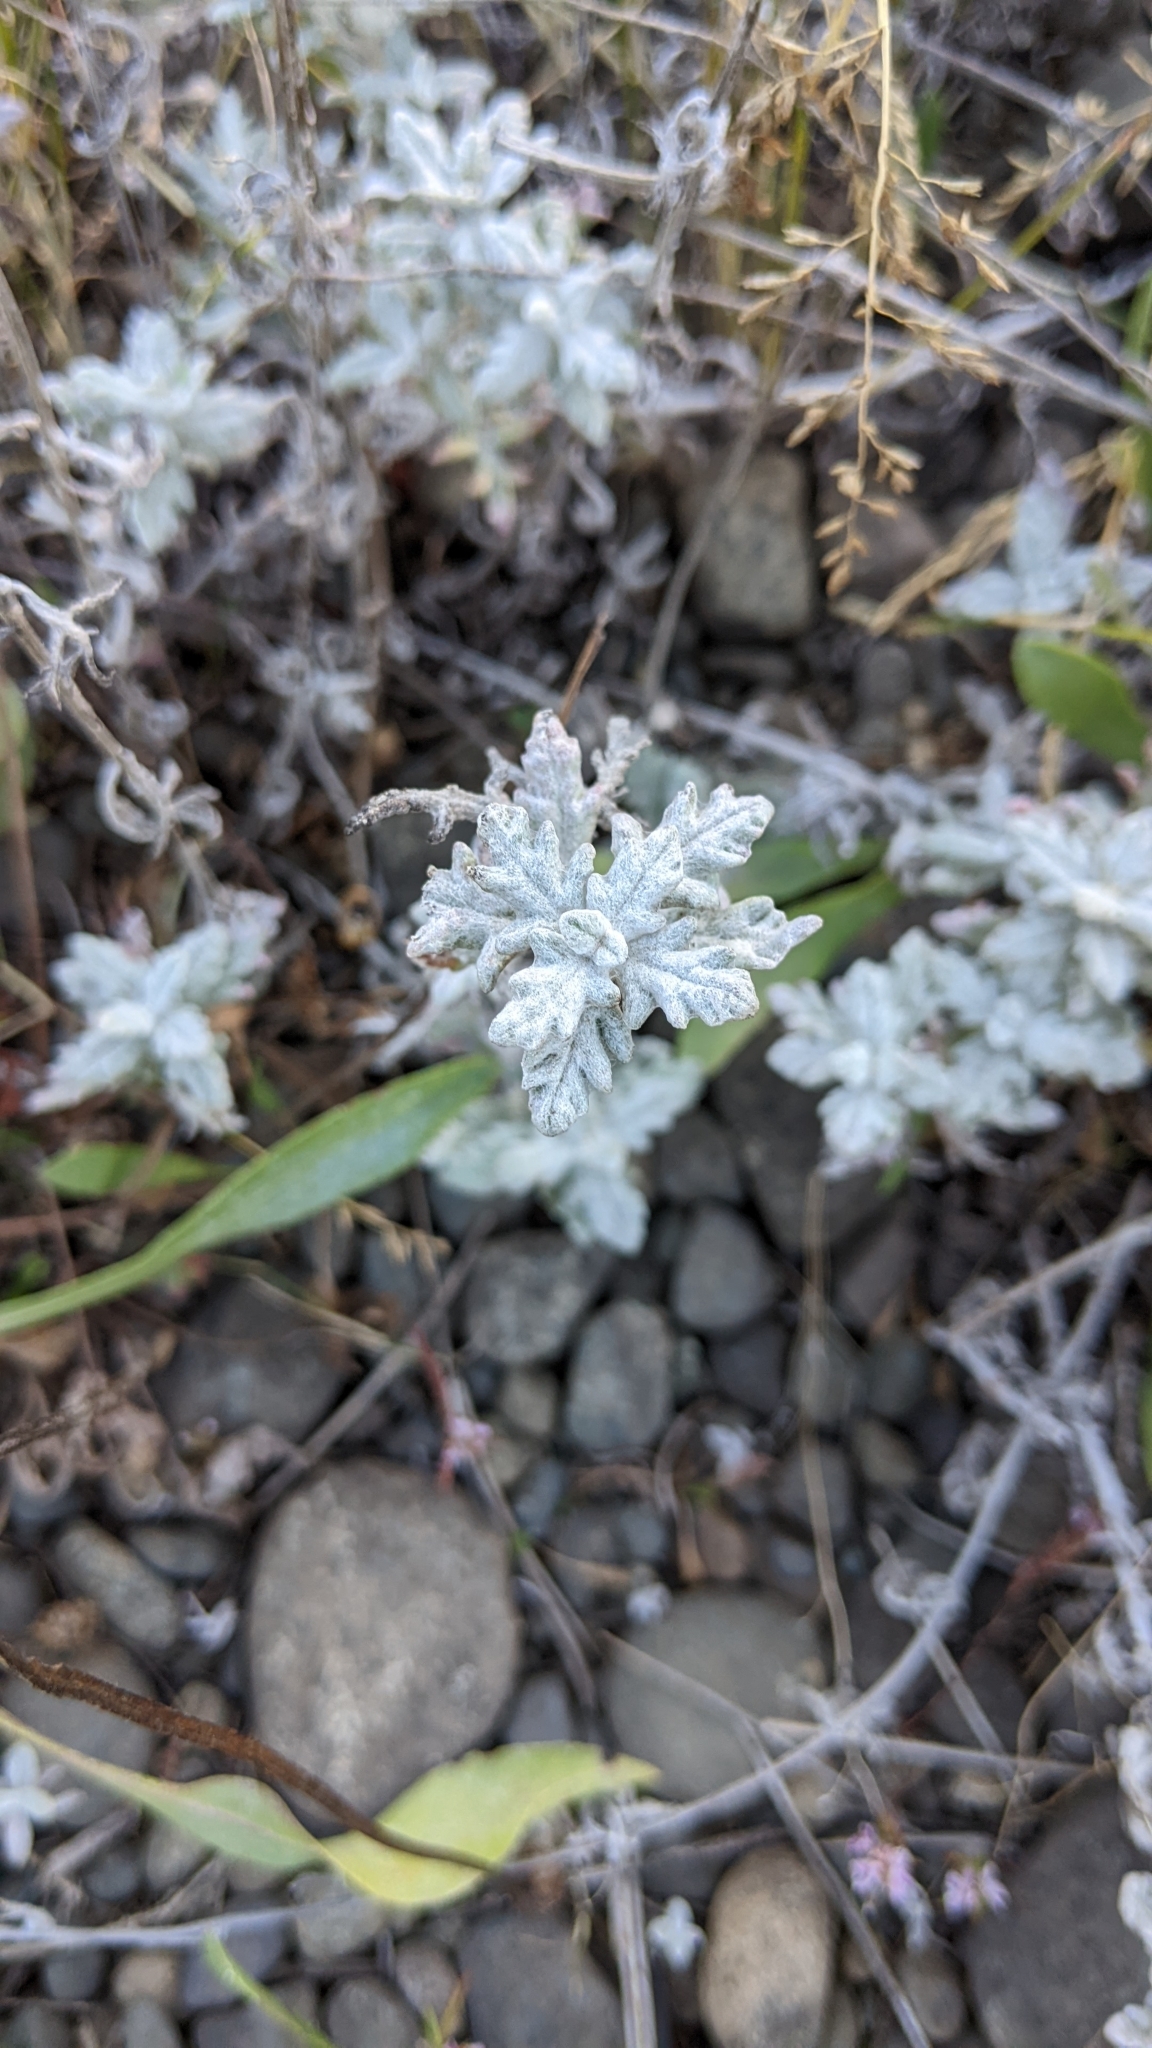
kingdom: Plantae
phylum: Tracheophyta
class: Magnoliopsida
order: Asterales
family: Asteraceae
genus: Eriophyllum
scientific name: Eriophyllum lanatum
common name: Common woolly-sunflower
